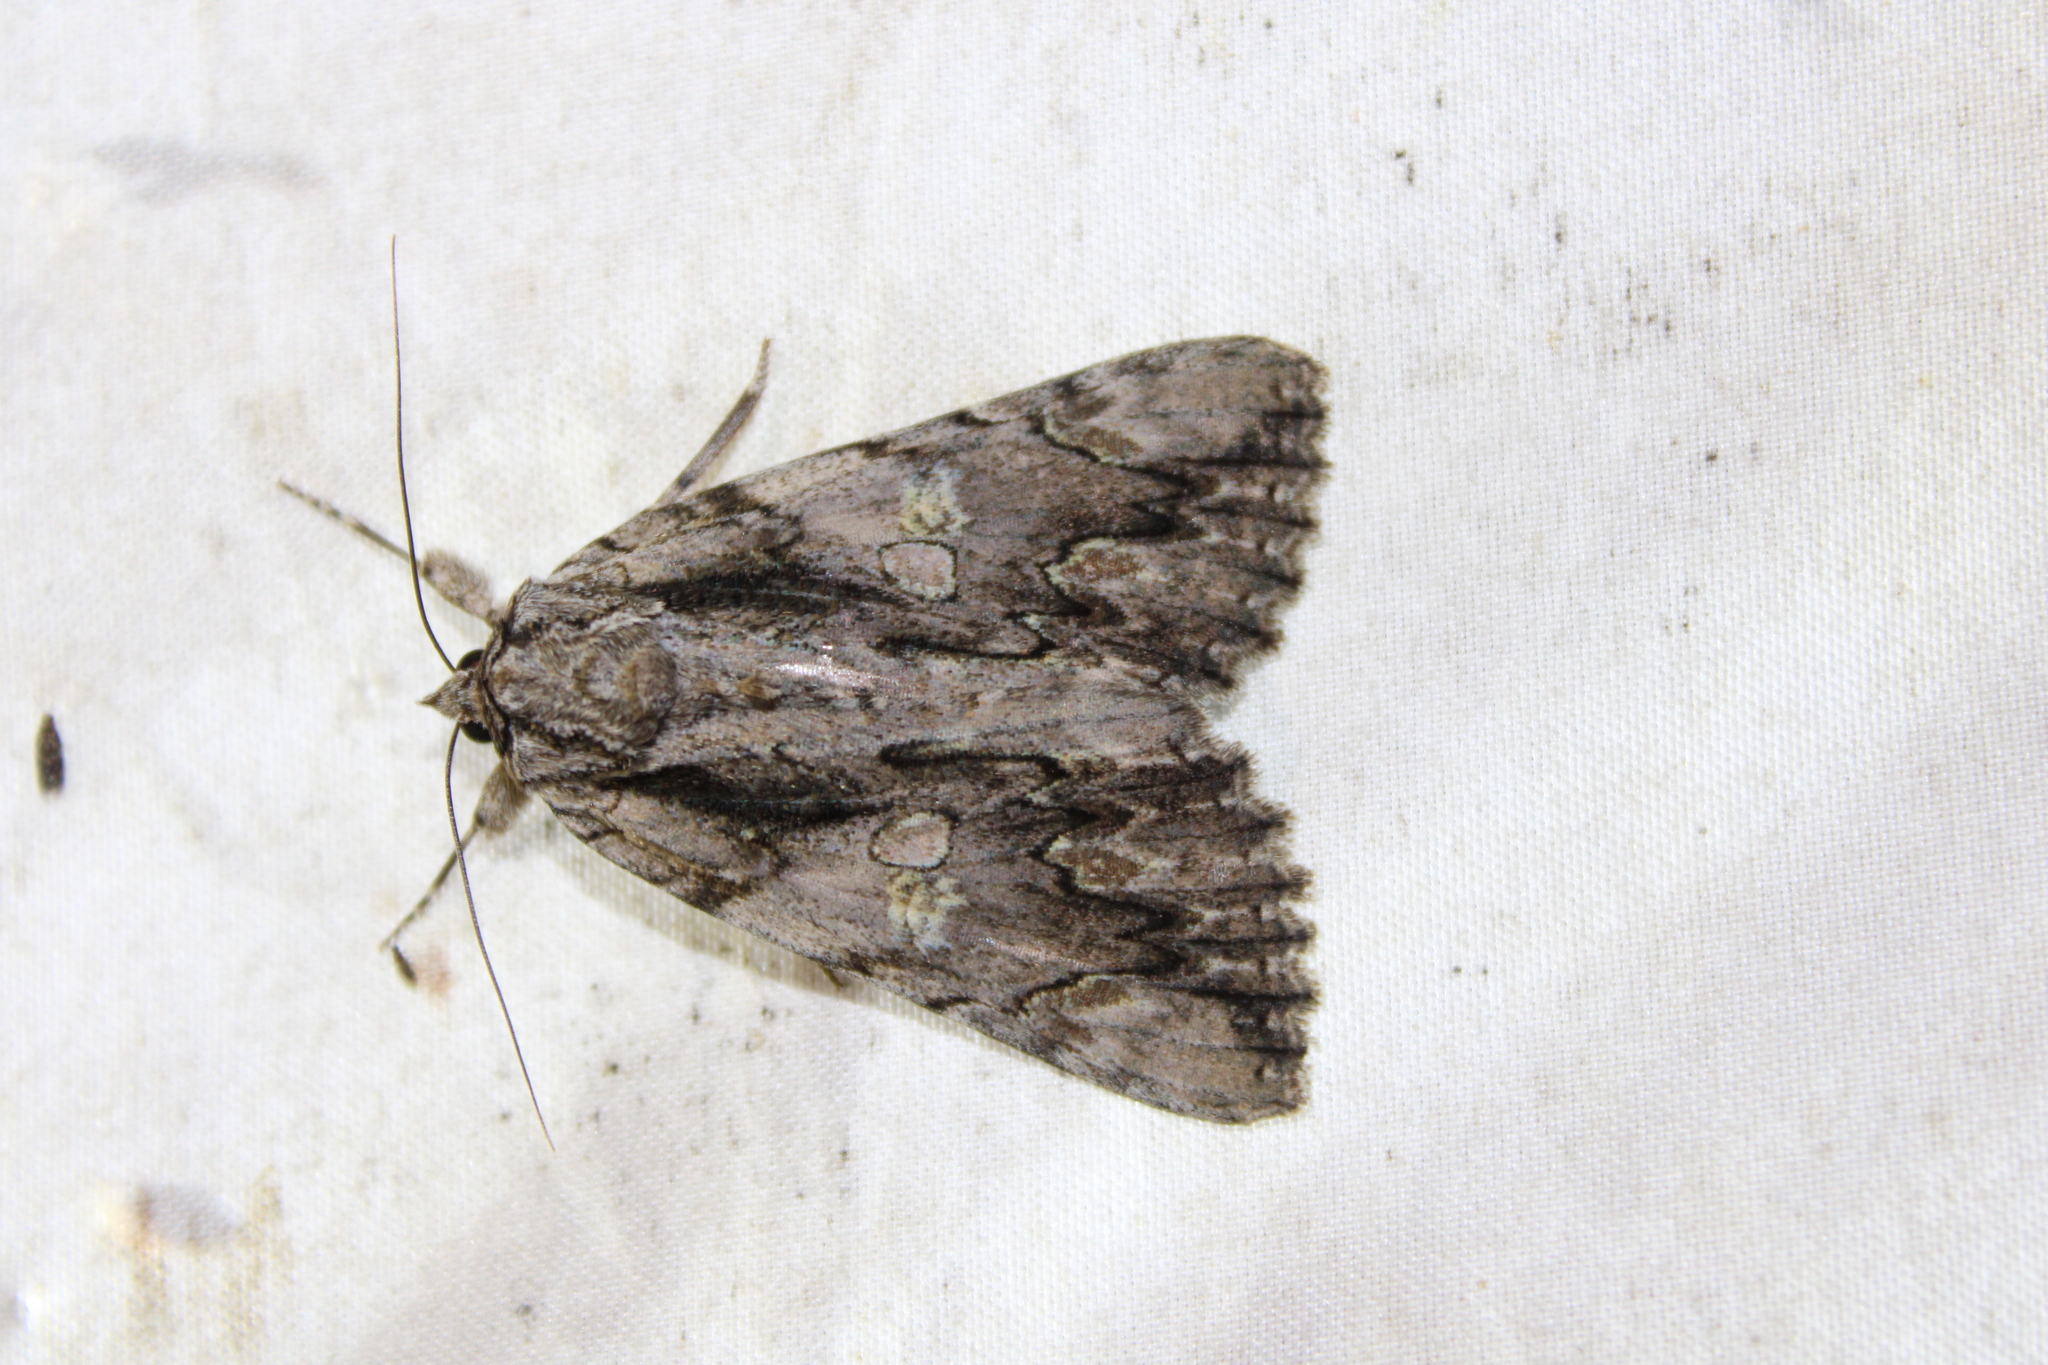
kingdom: Animalia
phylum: Arthropoda
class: Insecta
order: Lepidoptera
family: Erebidae
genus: Catocala
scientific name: Catocala coccinata
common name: Scarlet underwing
